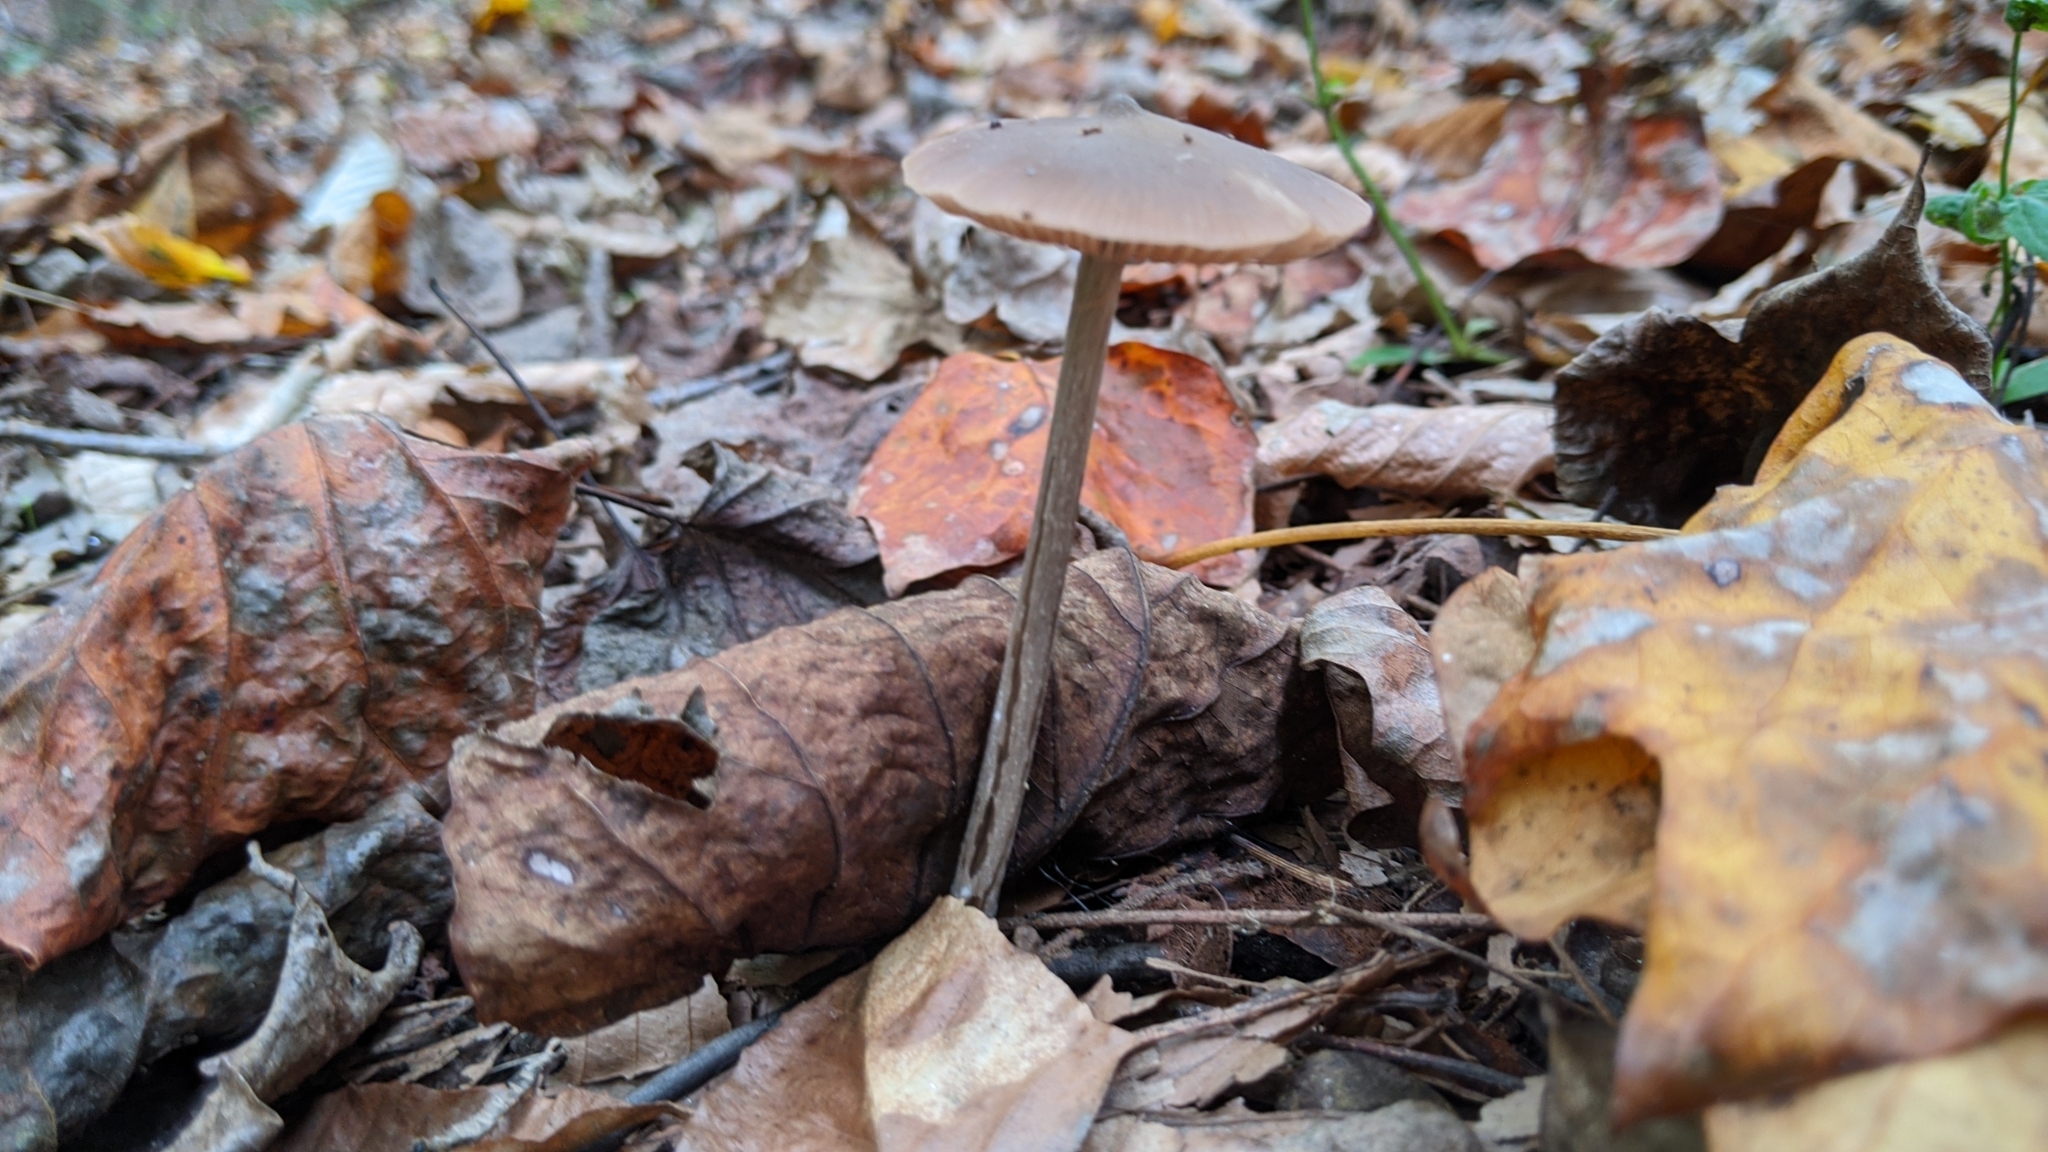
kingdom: Fungi
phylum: Basidiomycota
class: Agaricomycetes
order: Agaricales
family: Physalacriaceae
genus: Hymenopellis
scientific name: Hymenopellis furfuracea
